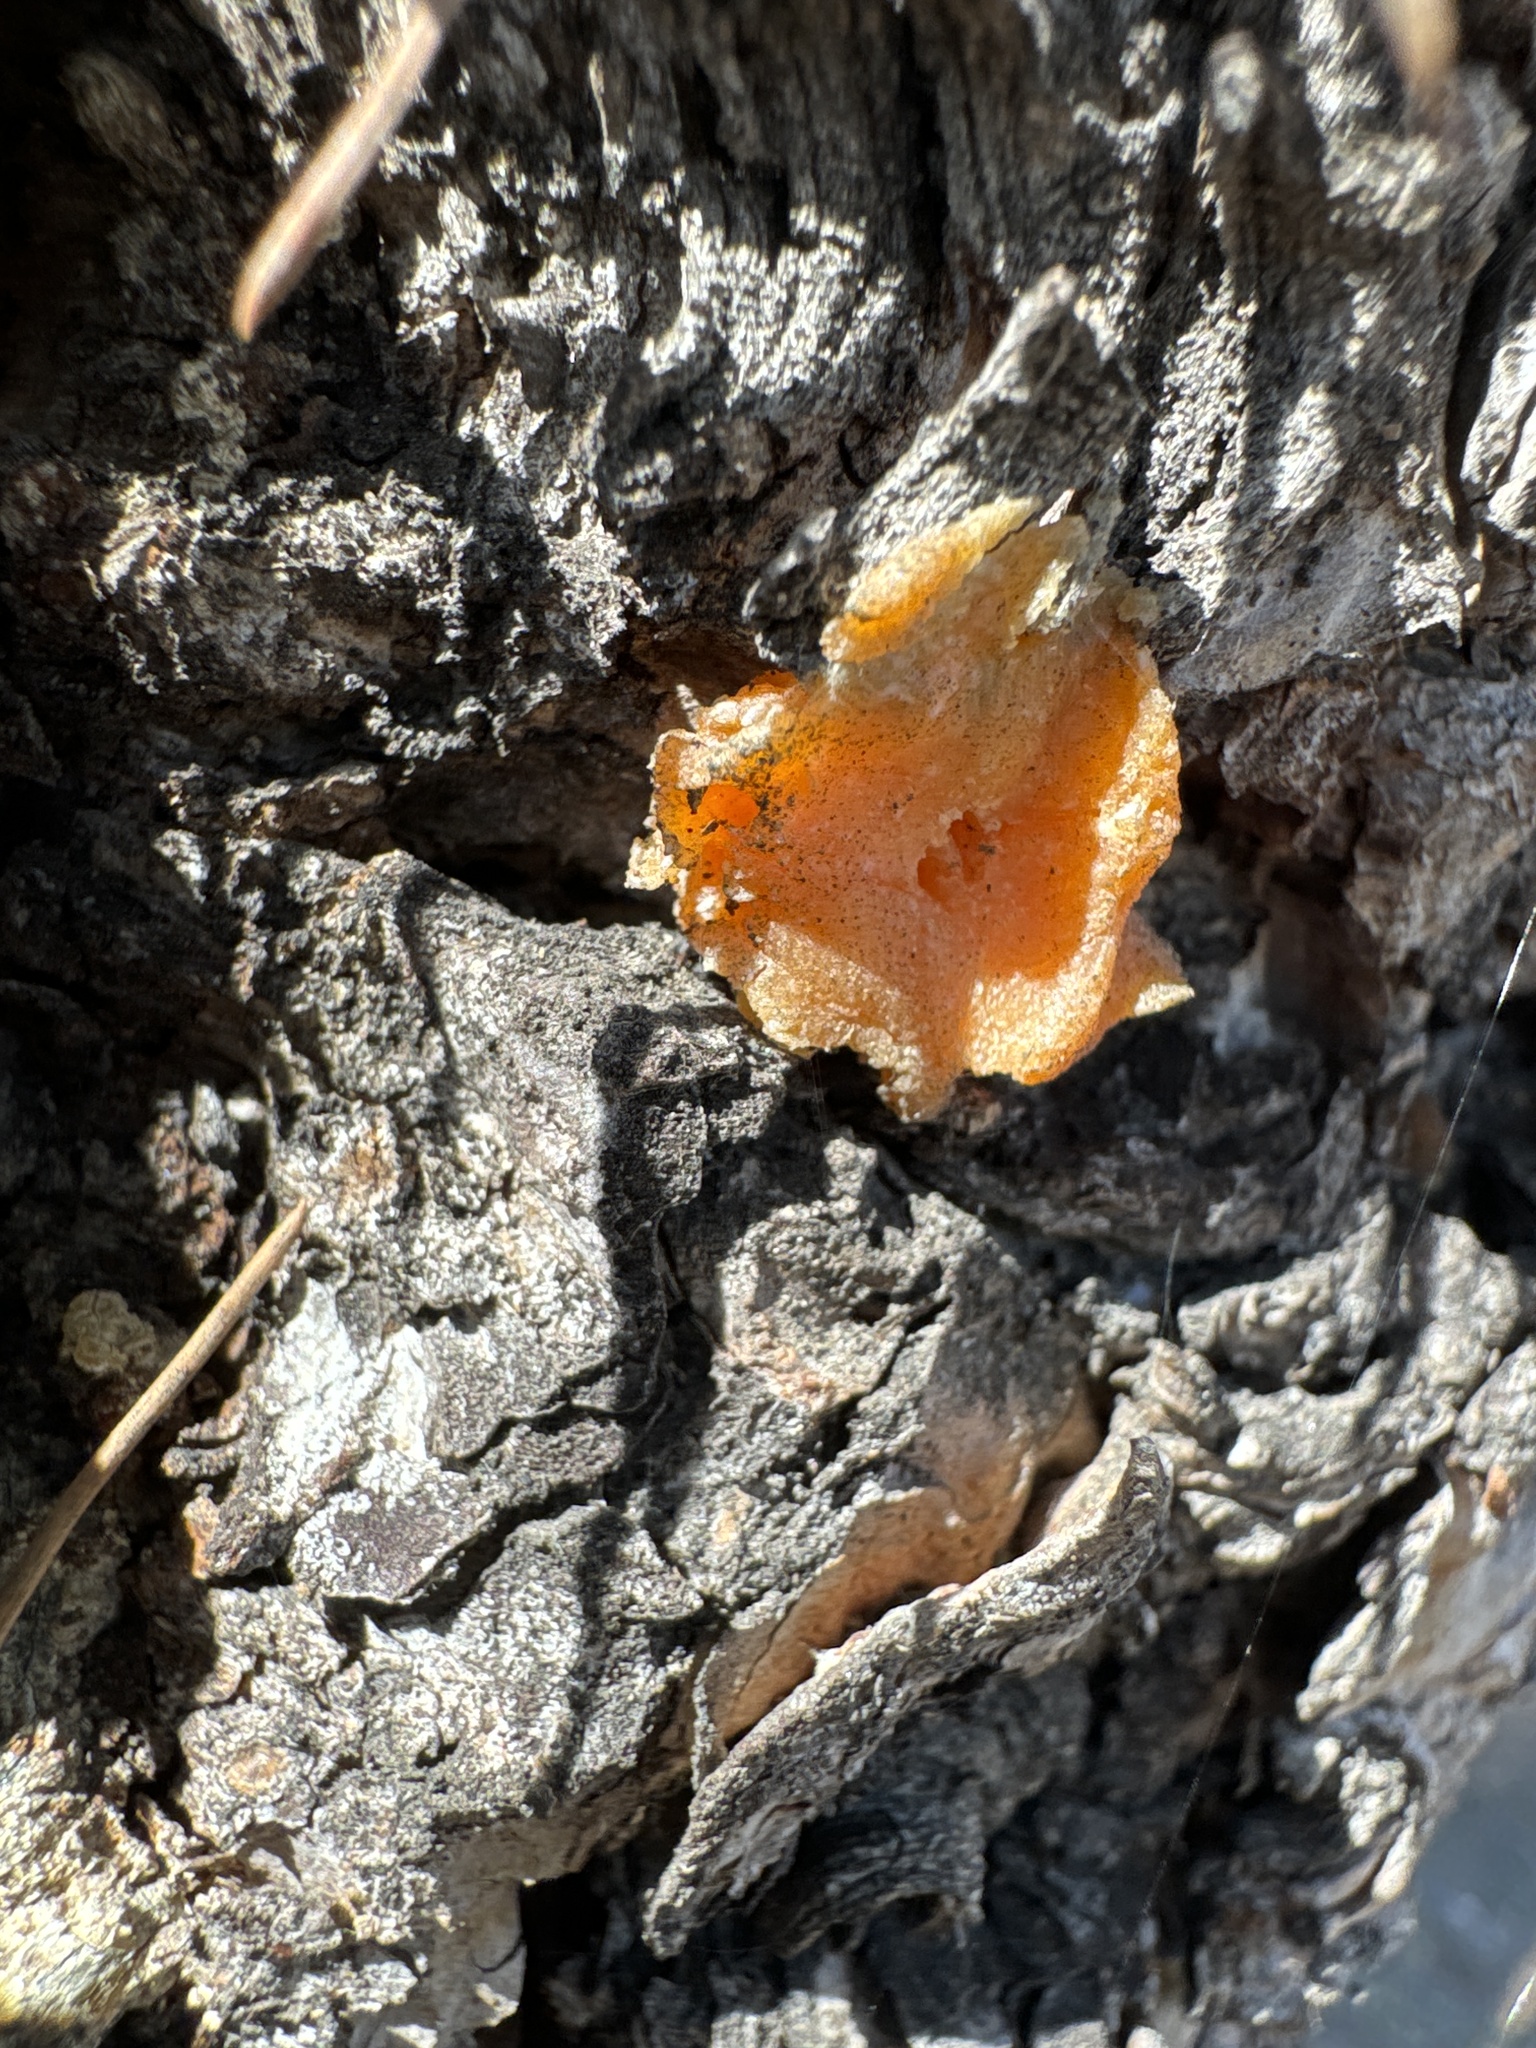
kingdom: Fungi
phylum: Basidiomycota
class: Tremellomycetes
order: Tremellales
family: Naemateliaceae
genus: Naematelia
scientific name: Naematelia aurantia
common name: Golden ear
